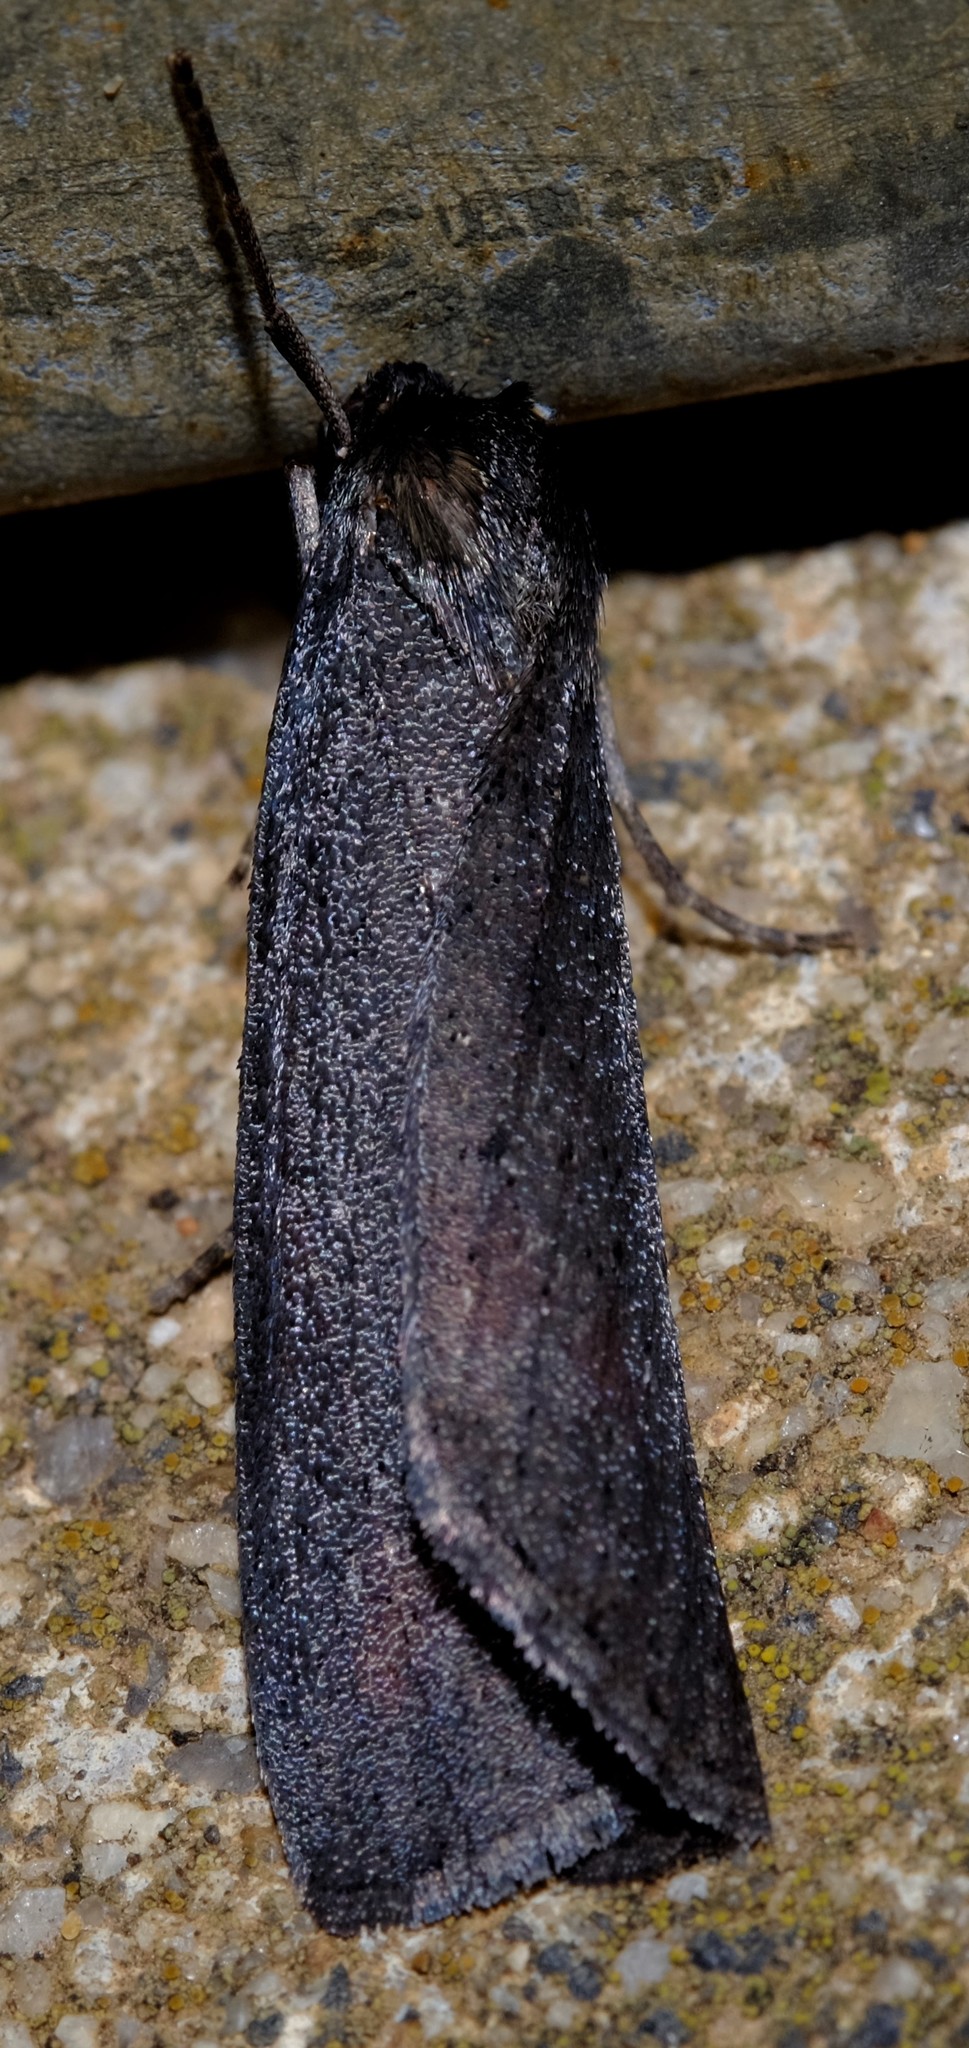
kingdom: Animalia
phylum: Arthropoda
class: Insecta
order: Lepidoptera
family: Geometridae
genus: Chlenias
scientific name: Chlenias seminigra
